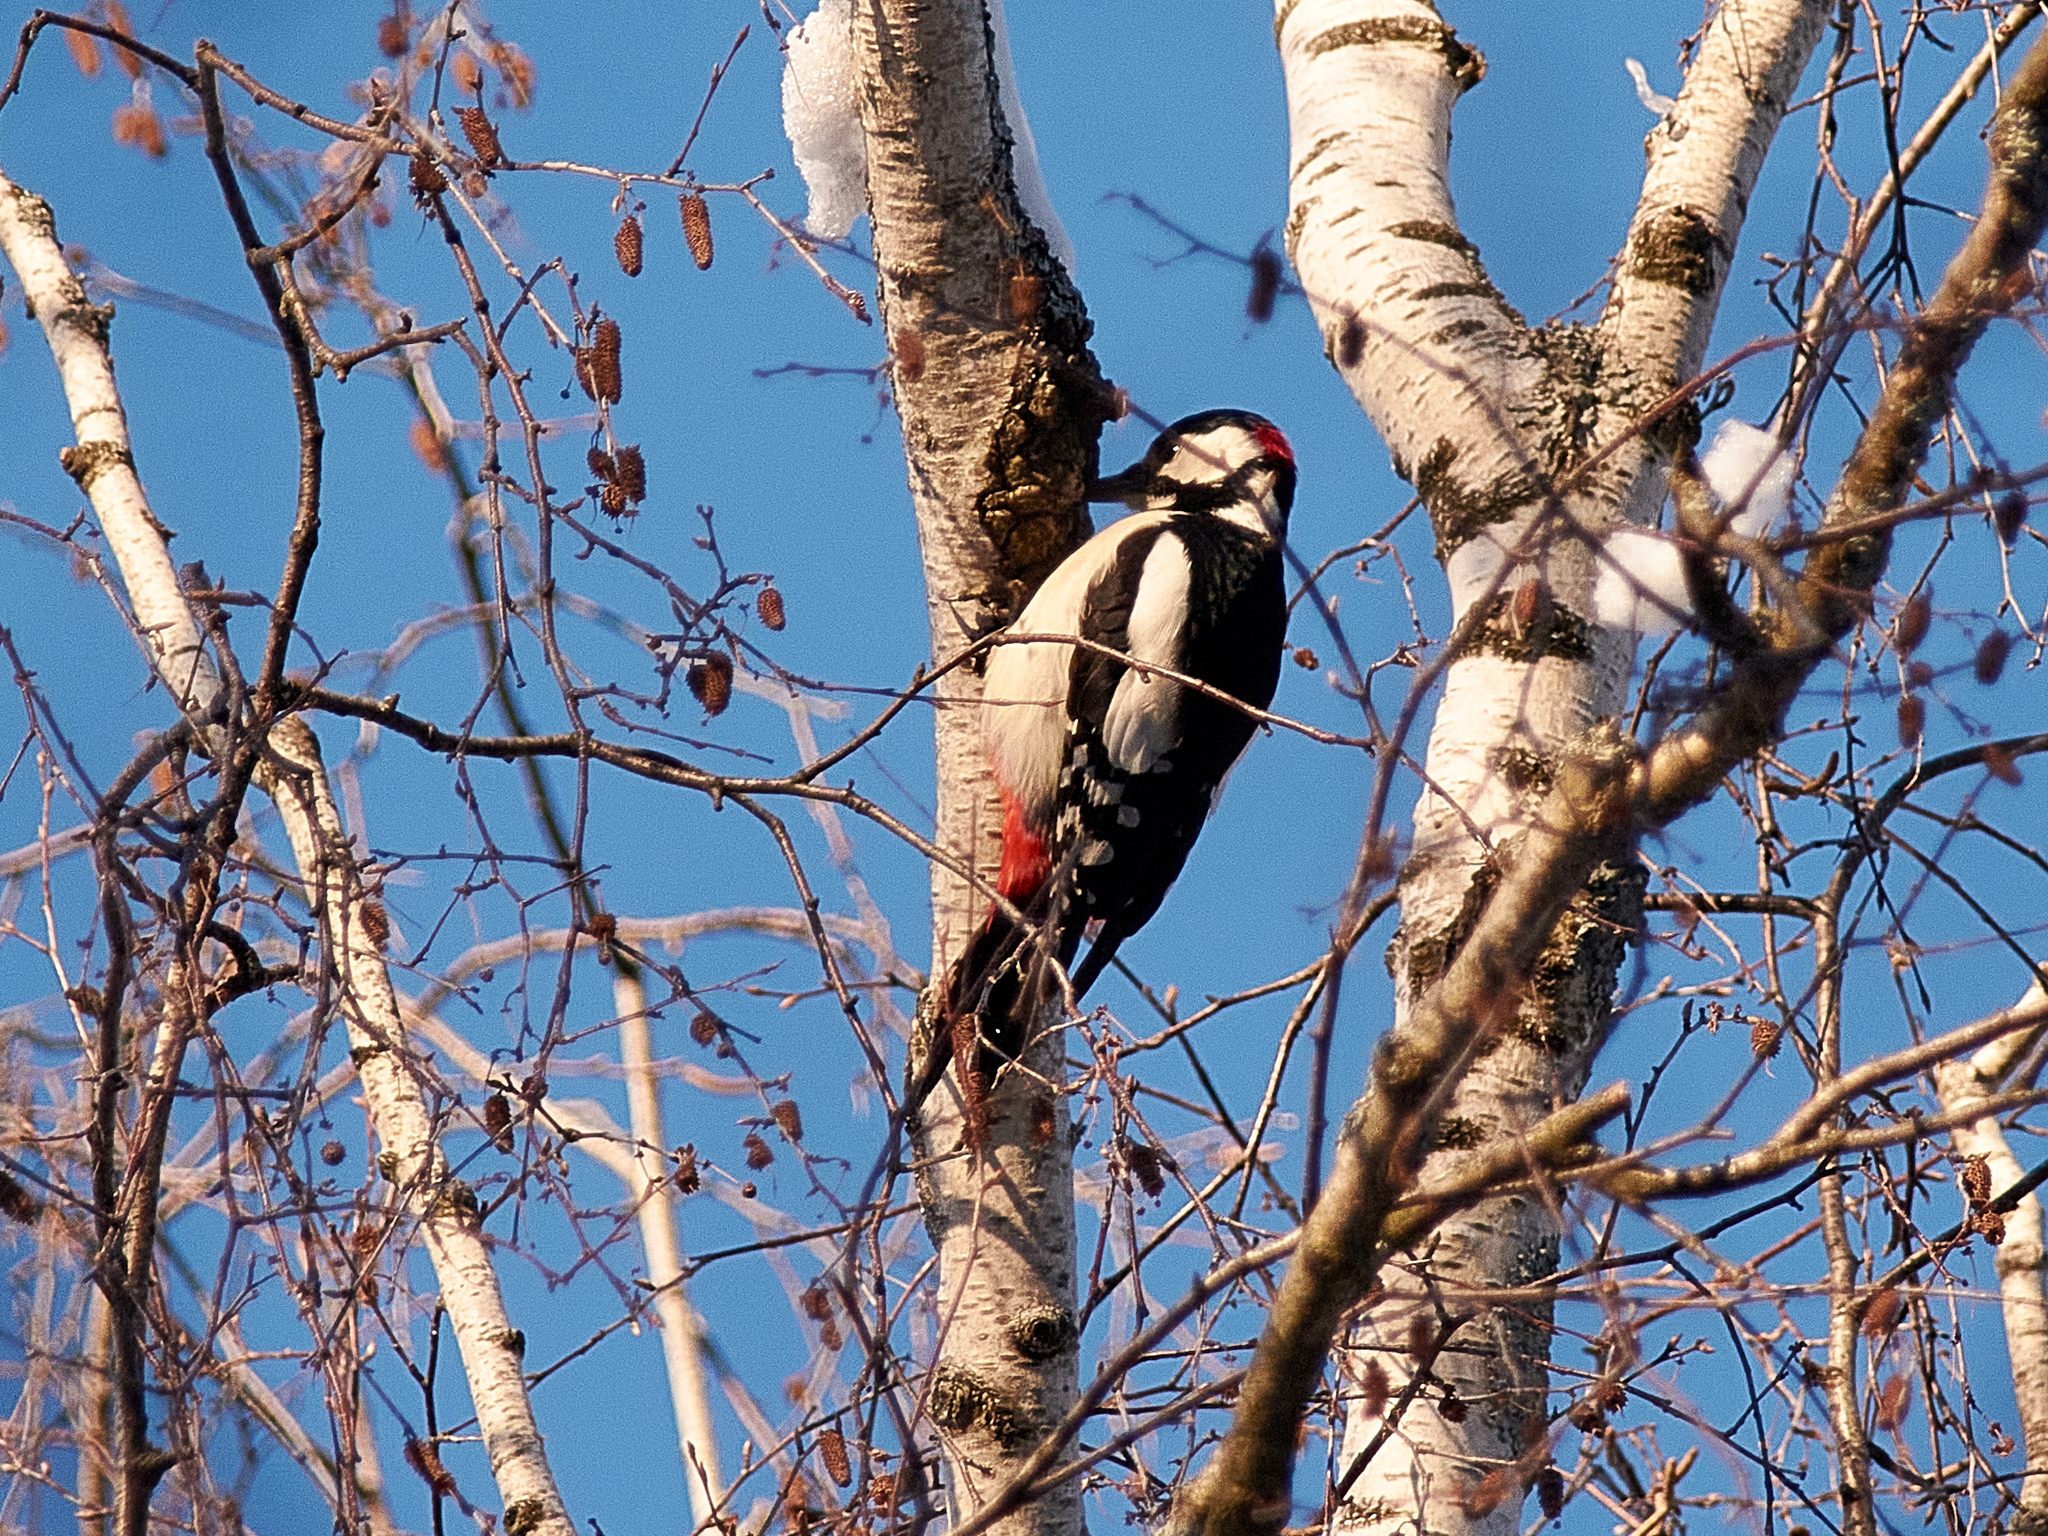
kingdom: Animalia
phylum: Chordata
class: Aves
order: Piciformes
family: Picidae
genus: Dendrocopos
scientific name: Dendrocopos major
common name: Great spotted woodpecker
